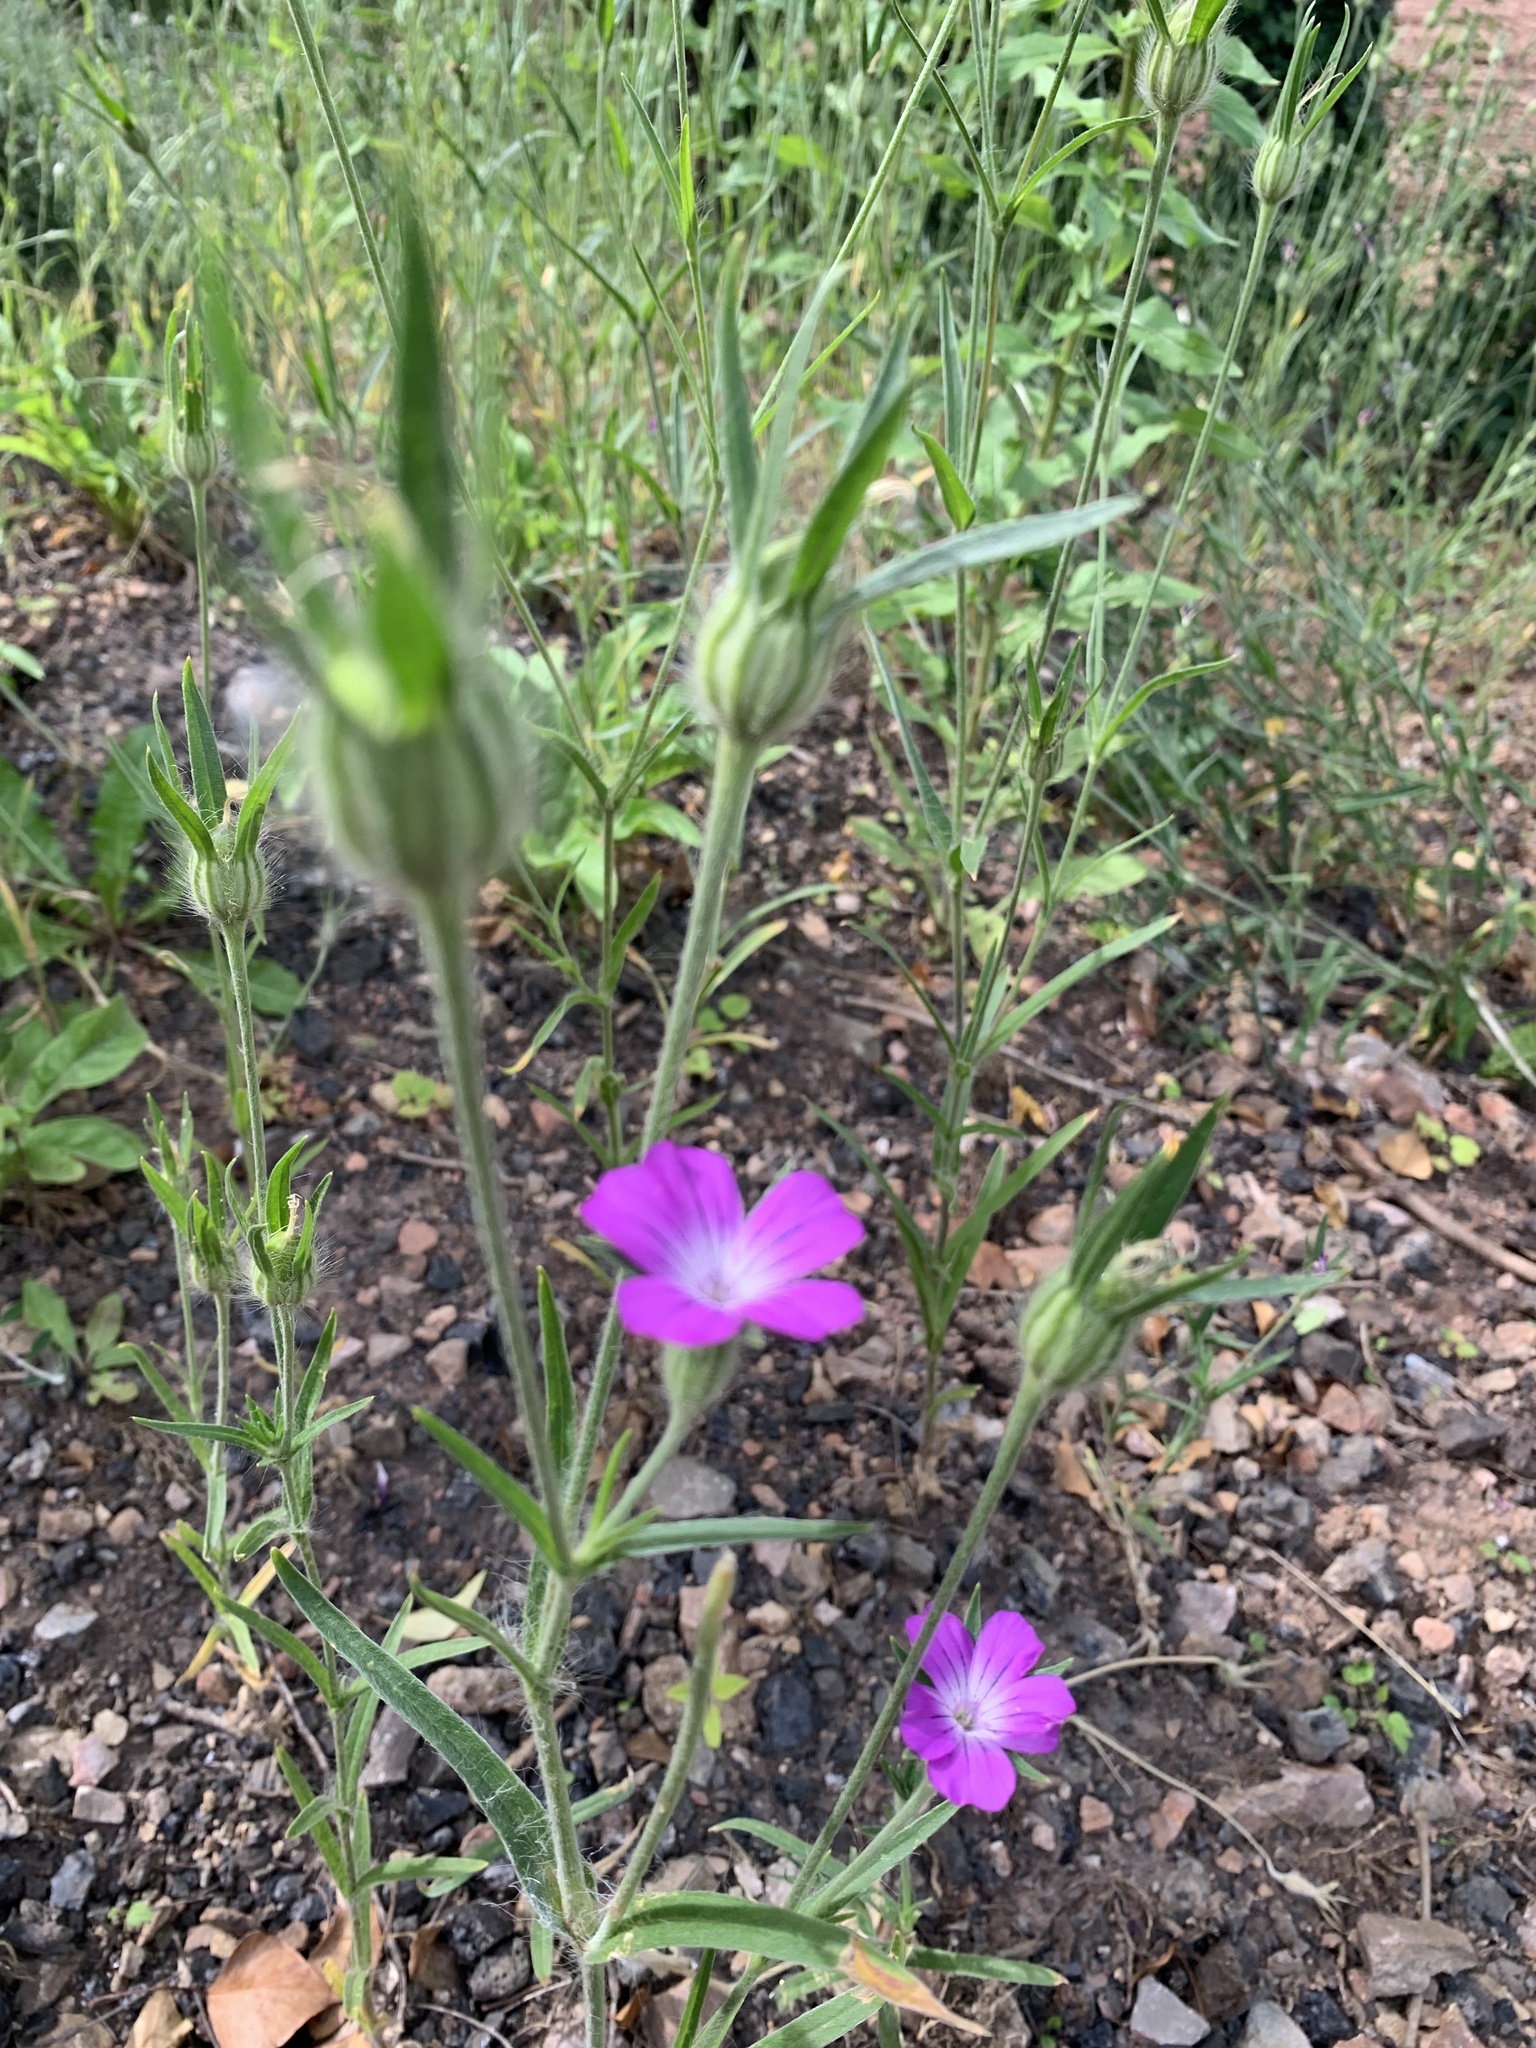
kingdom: Plantae
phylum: Tracheophyta
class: Magnoliopsida
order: Caryophyllales
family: Caryophyllaceae
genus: Agrostemma
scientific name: Agrostemma githago
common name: Common corncockle
